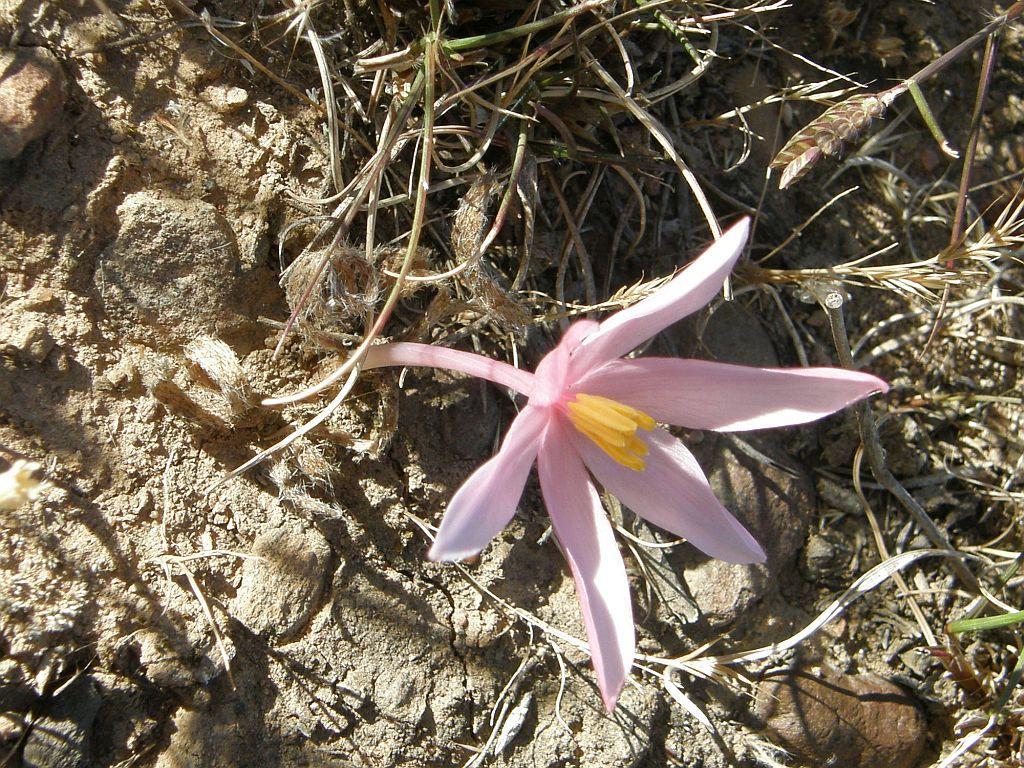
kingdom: Plantae
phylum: Tracheophyta
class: Liliopsida
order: Asparagales
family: Amaryllidaceae
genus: Gethyllis
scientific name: Gethyllis villosa
